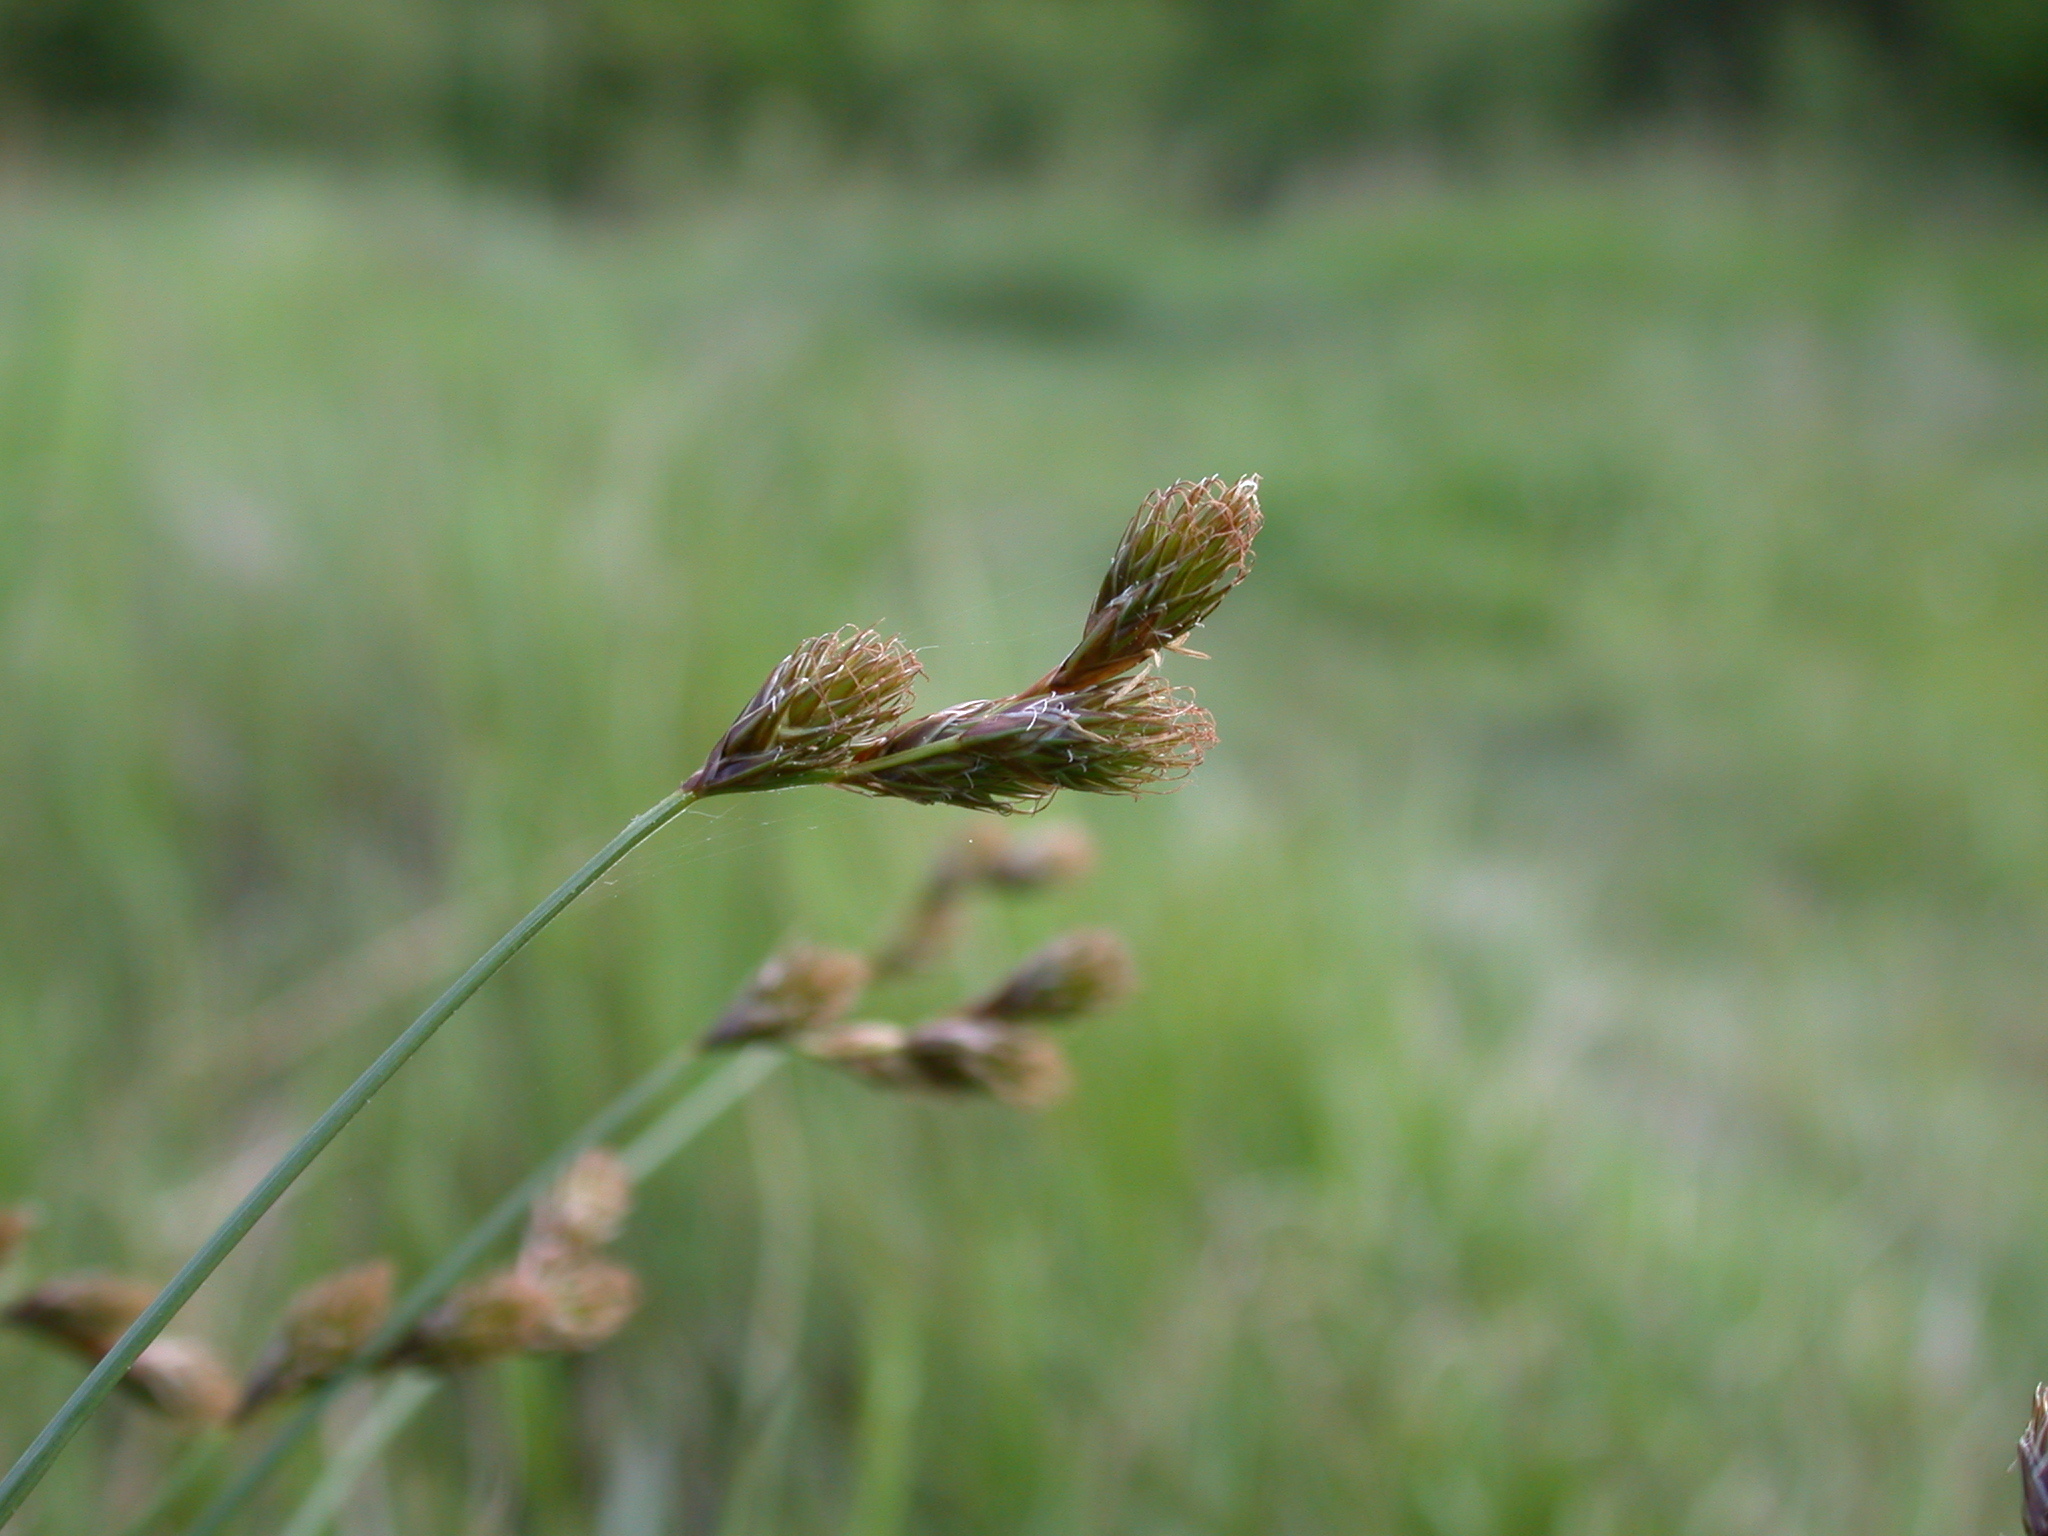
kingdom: Plantae
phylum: Tracheophyta
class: Liliopsida
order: Poales
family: Cyperaceae
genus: Carex
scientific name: Carex leporina
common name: Oval sedge
